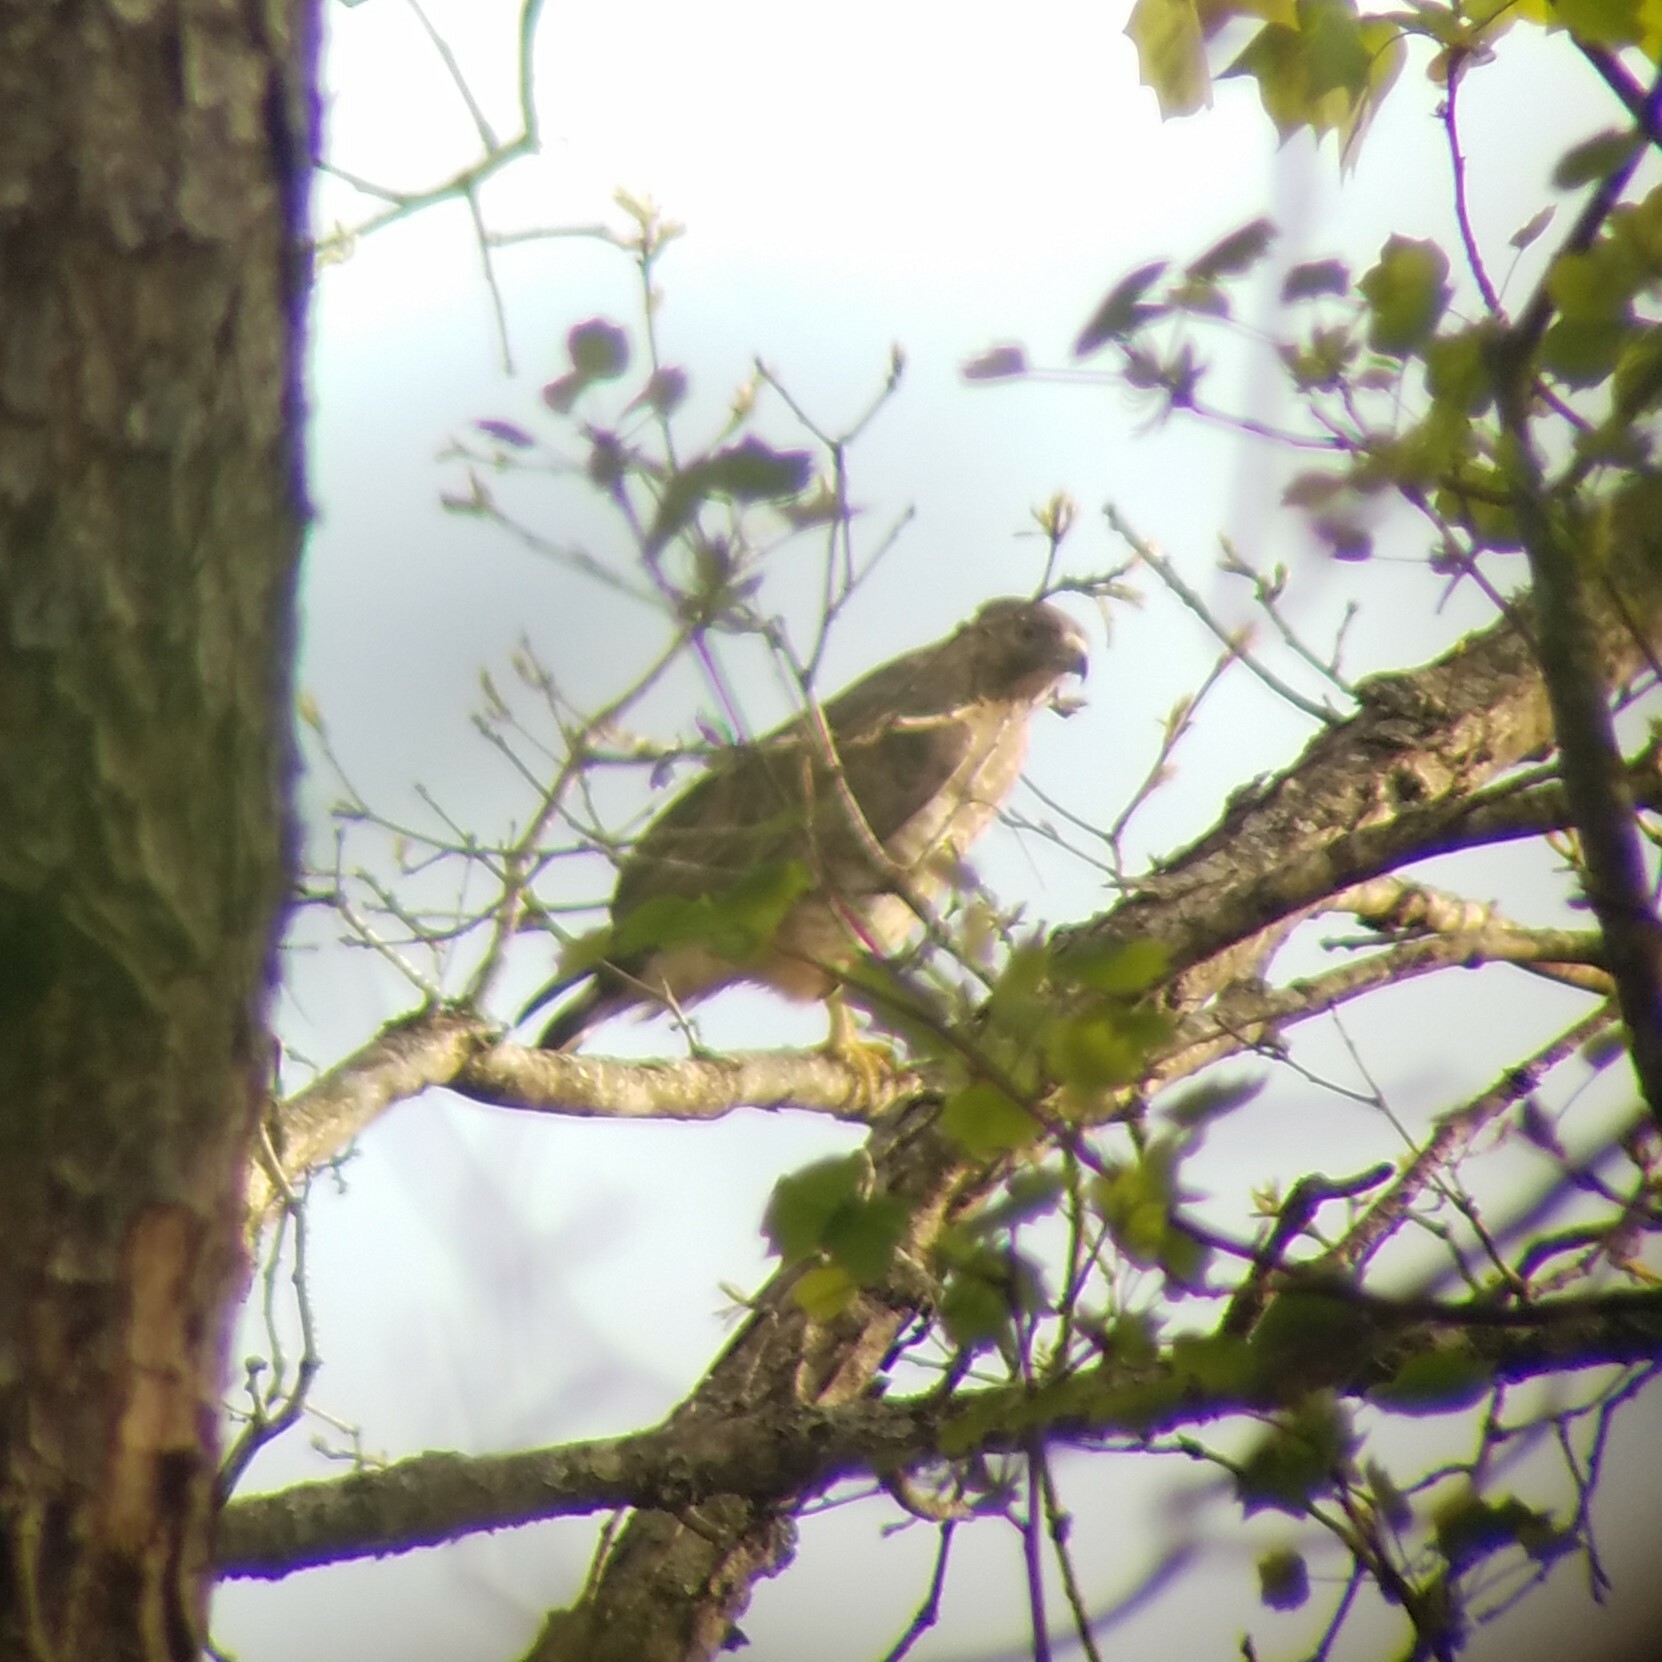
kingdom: Animalia
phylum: Chordata
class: Aves
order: Accipitriformes
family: Accipitridae
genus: Buteo
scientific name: Buteo platypterus
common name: Broad-winged hawk
